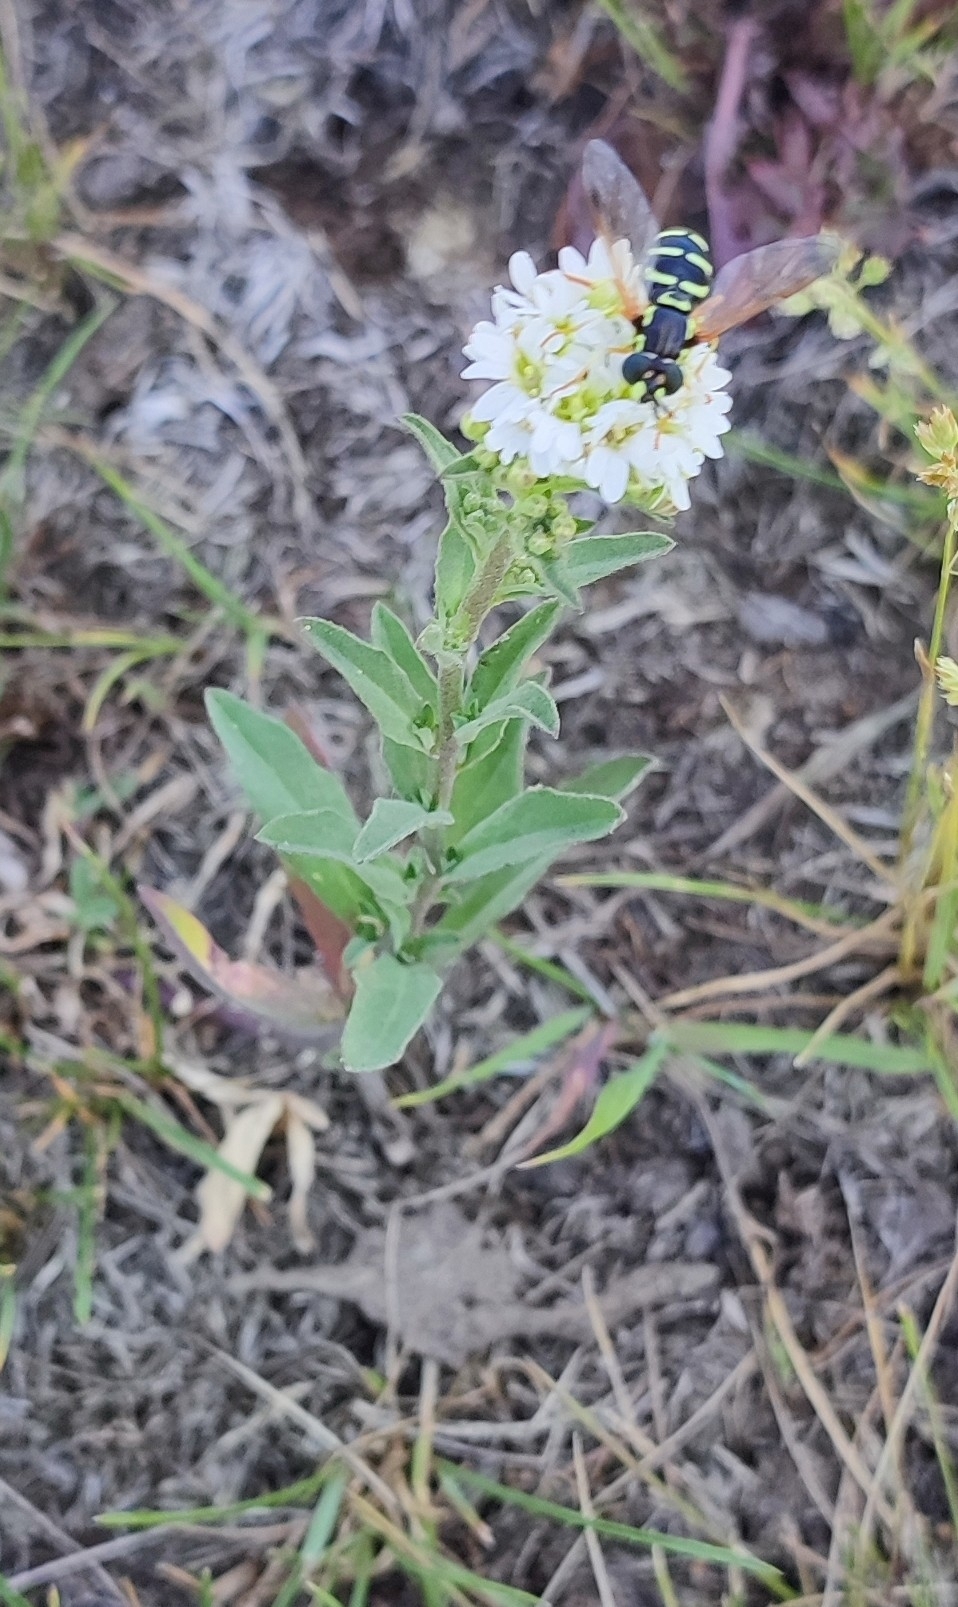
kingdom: Plantae
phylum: Tracheophyta
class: Magnoliopsida
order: Brassicales
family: Brassicaceae
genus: Berteroa
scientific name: Berteroa incana
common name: Hoary alison
